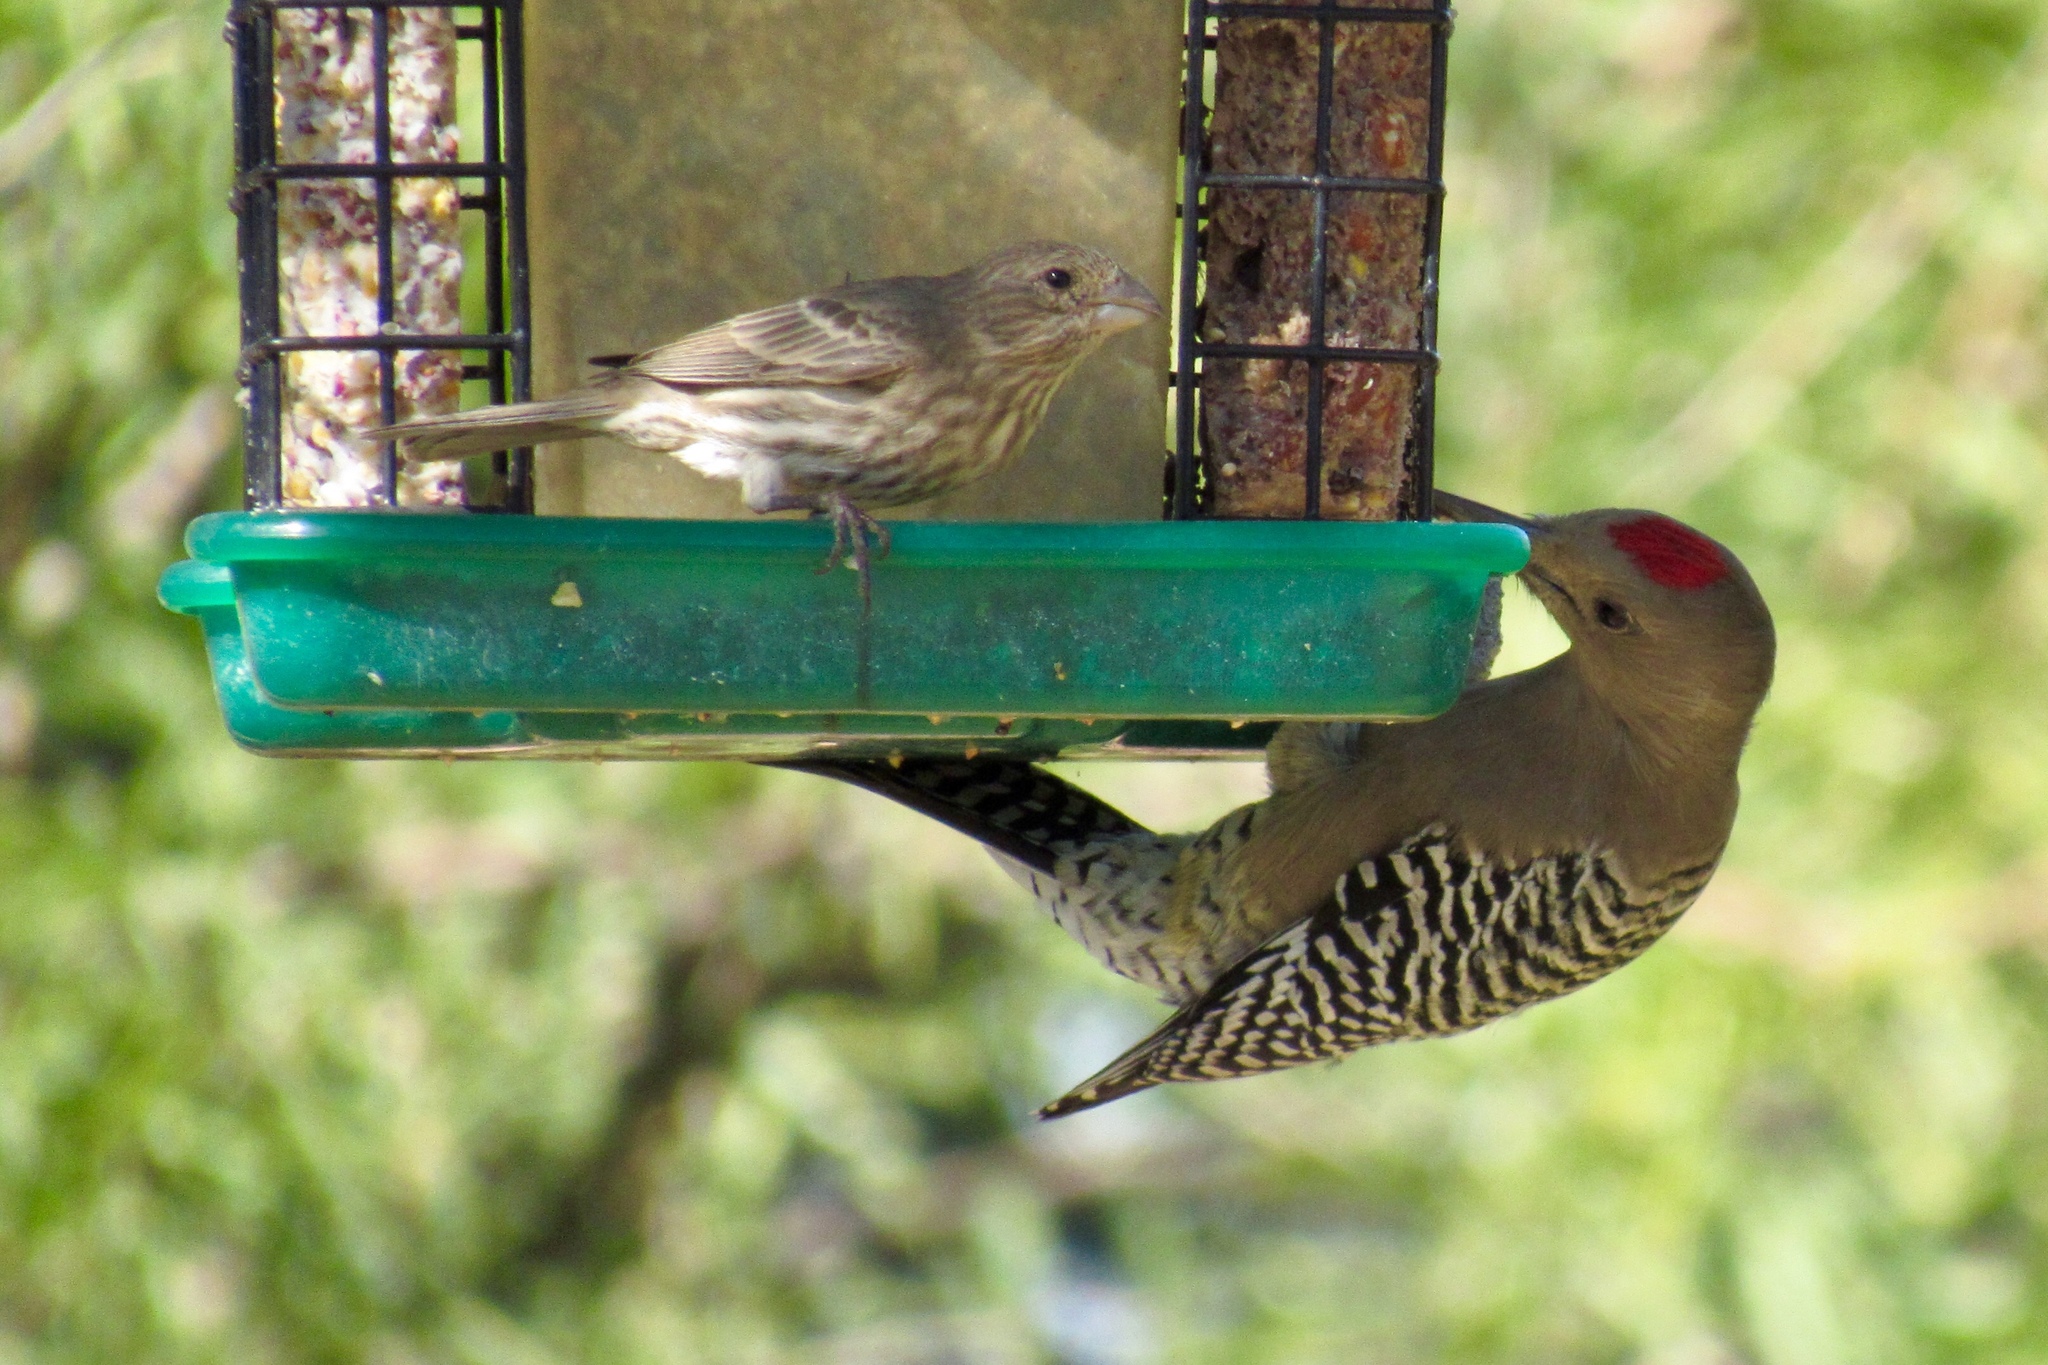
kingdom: Animalia
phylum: Chordata
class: Aves
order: Passeriformes
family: Fringillidae
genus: Haemorhous
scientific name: Haemorhous mexicanus
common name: House finch
